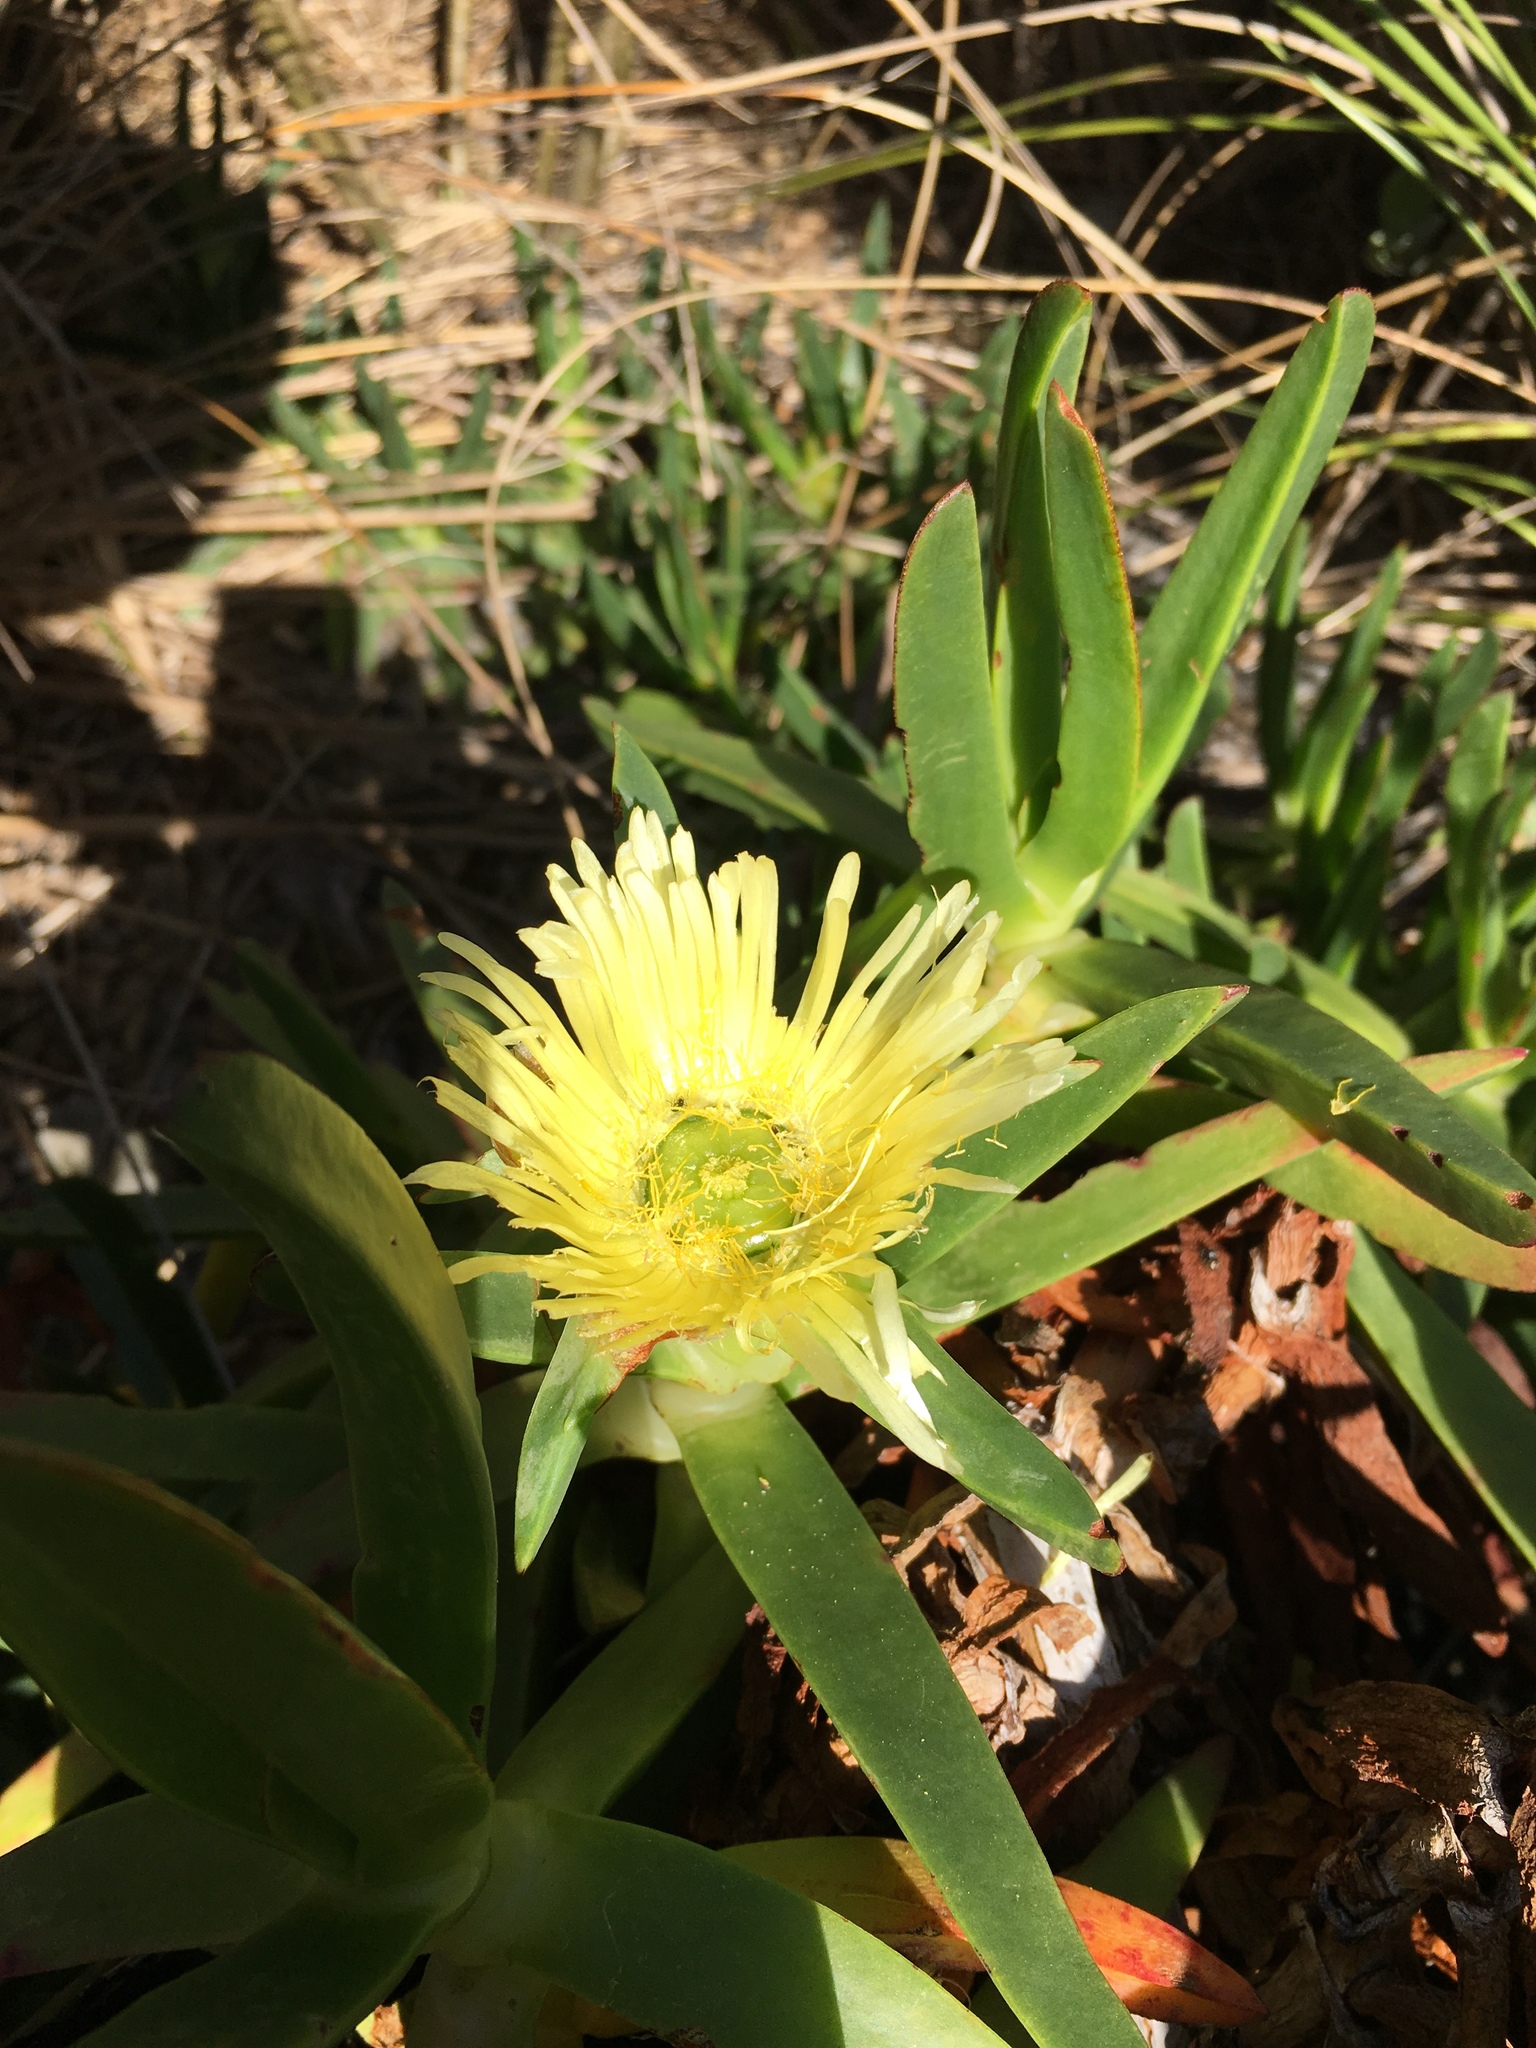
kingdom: Plantae
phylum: Tracheophyta
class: Magnoliopsida
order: Caryophyllales
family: Aizoaceae
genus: Carpobrotus
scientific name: Carpobrotus edulis
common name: Hottentot-fig
